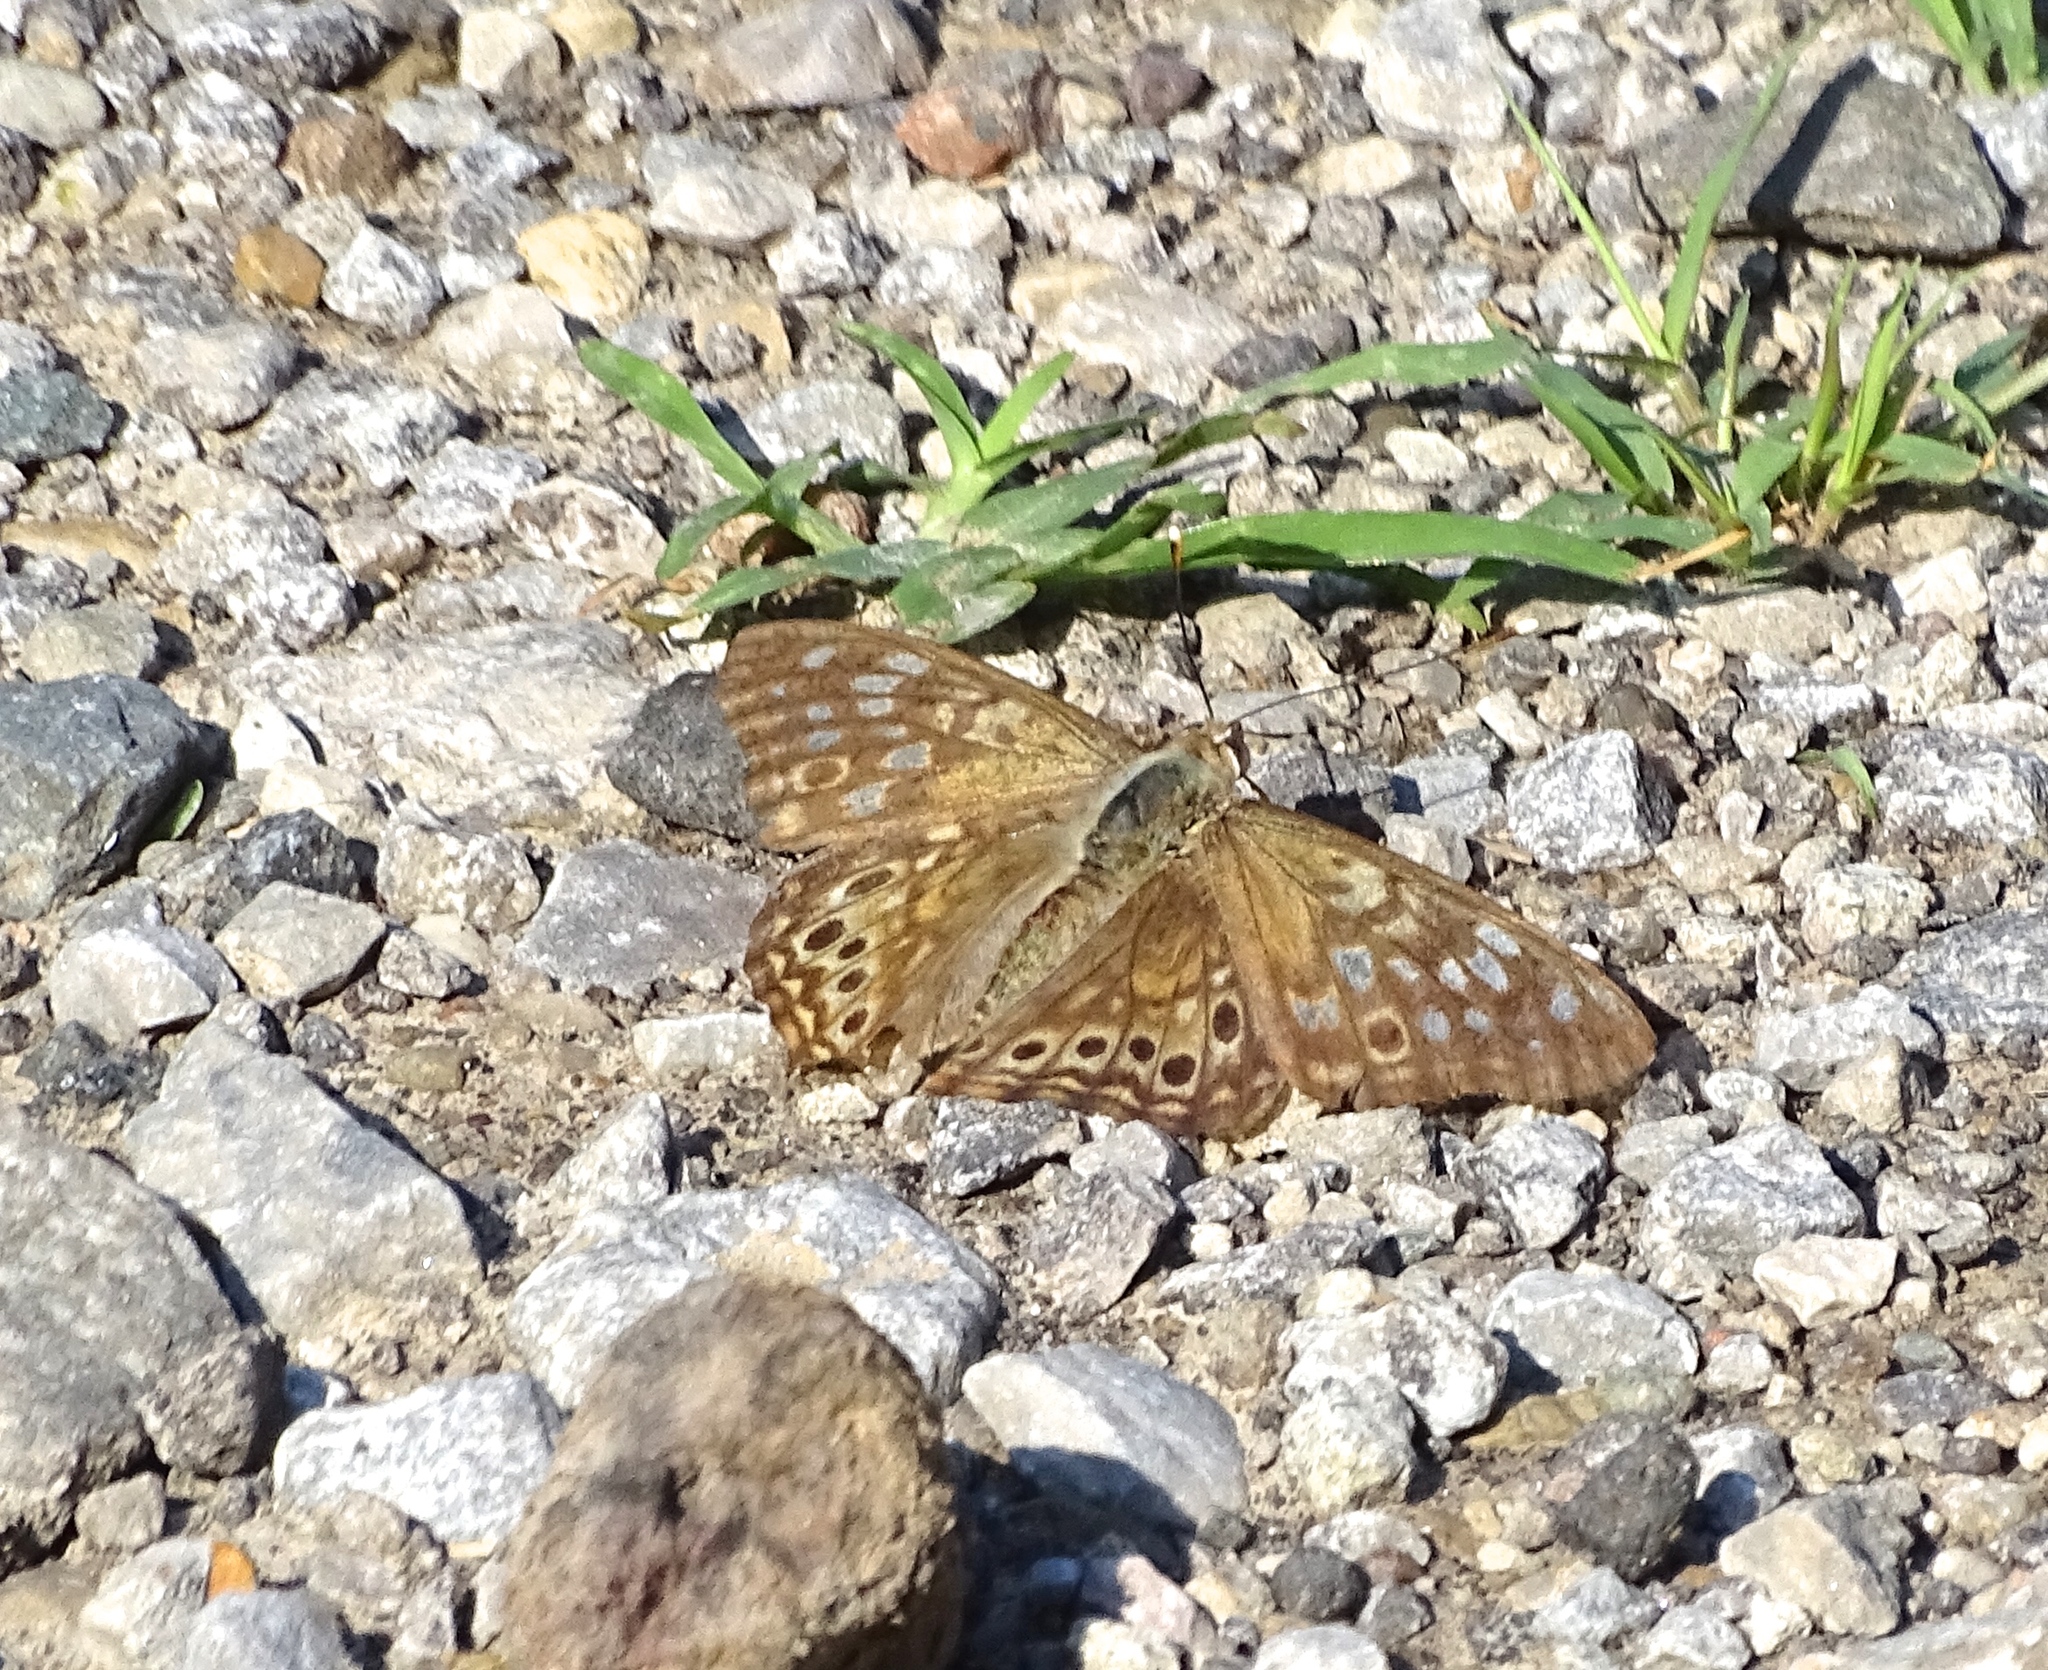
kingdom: Animalia
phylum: Arthropoda
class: Insecta
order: Lepidoptera
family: Nymphalidae
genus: Asterocampa
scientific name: Asterocampa celtis
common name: Hackberry emperor
